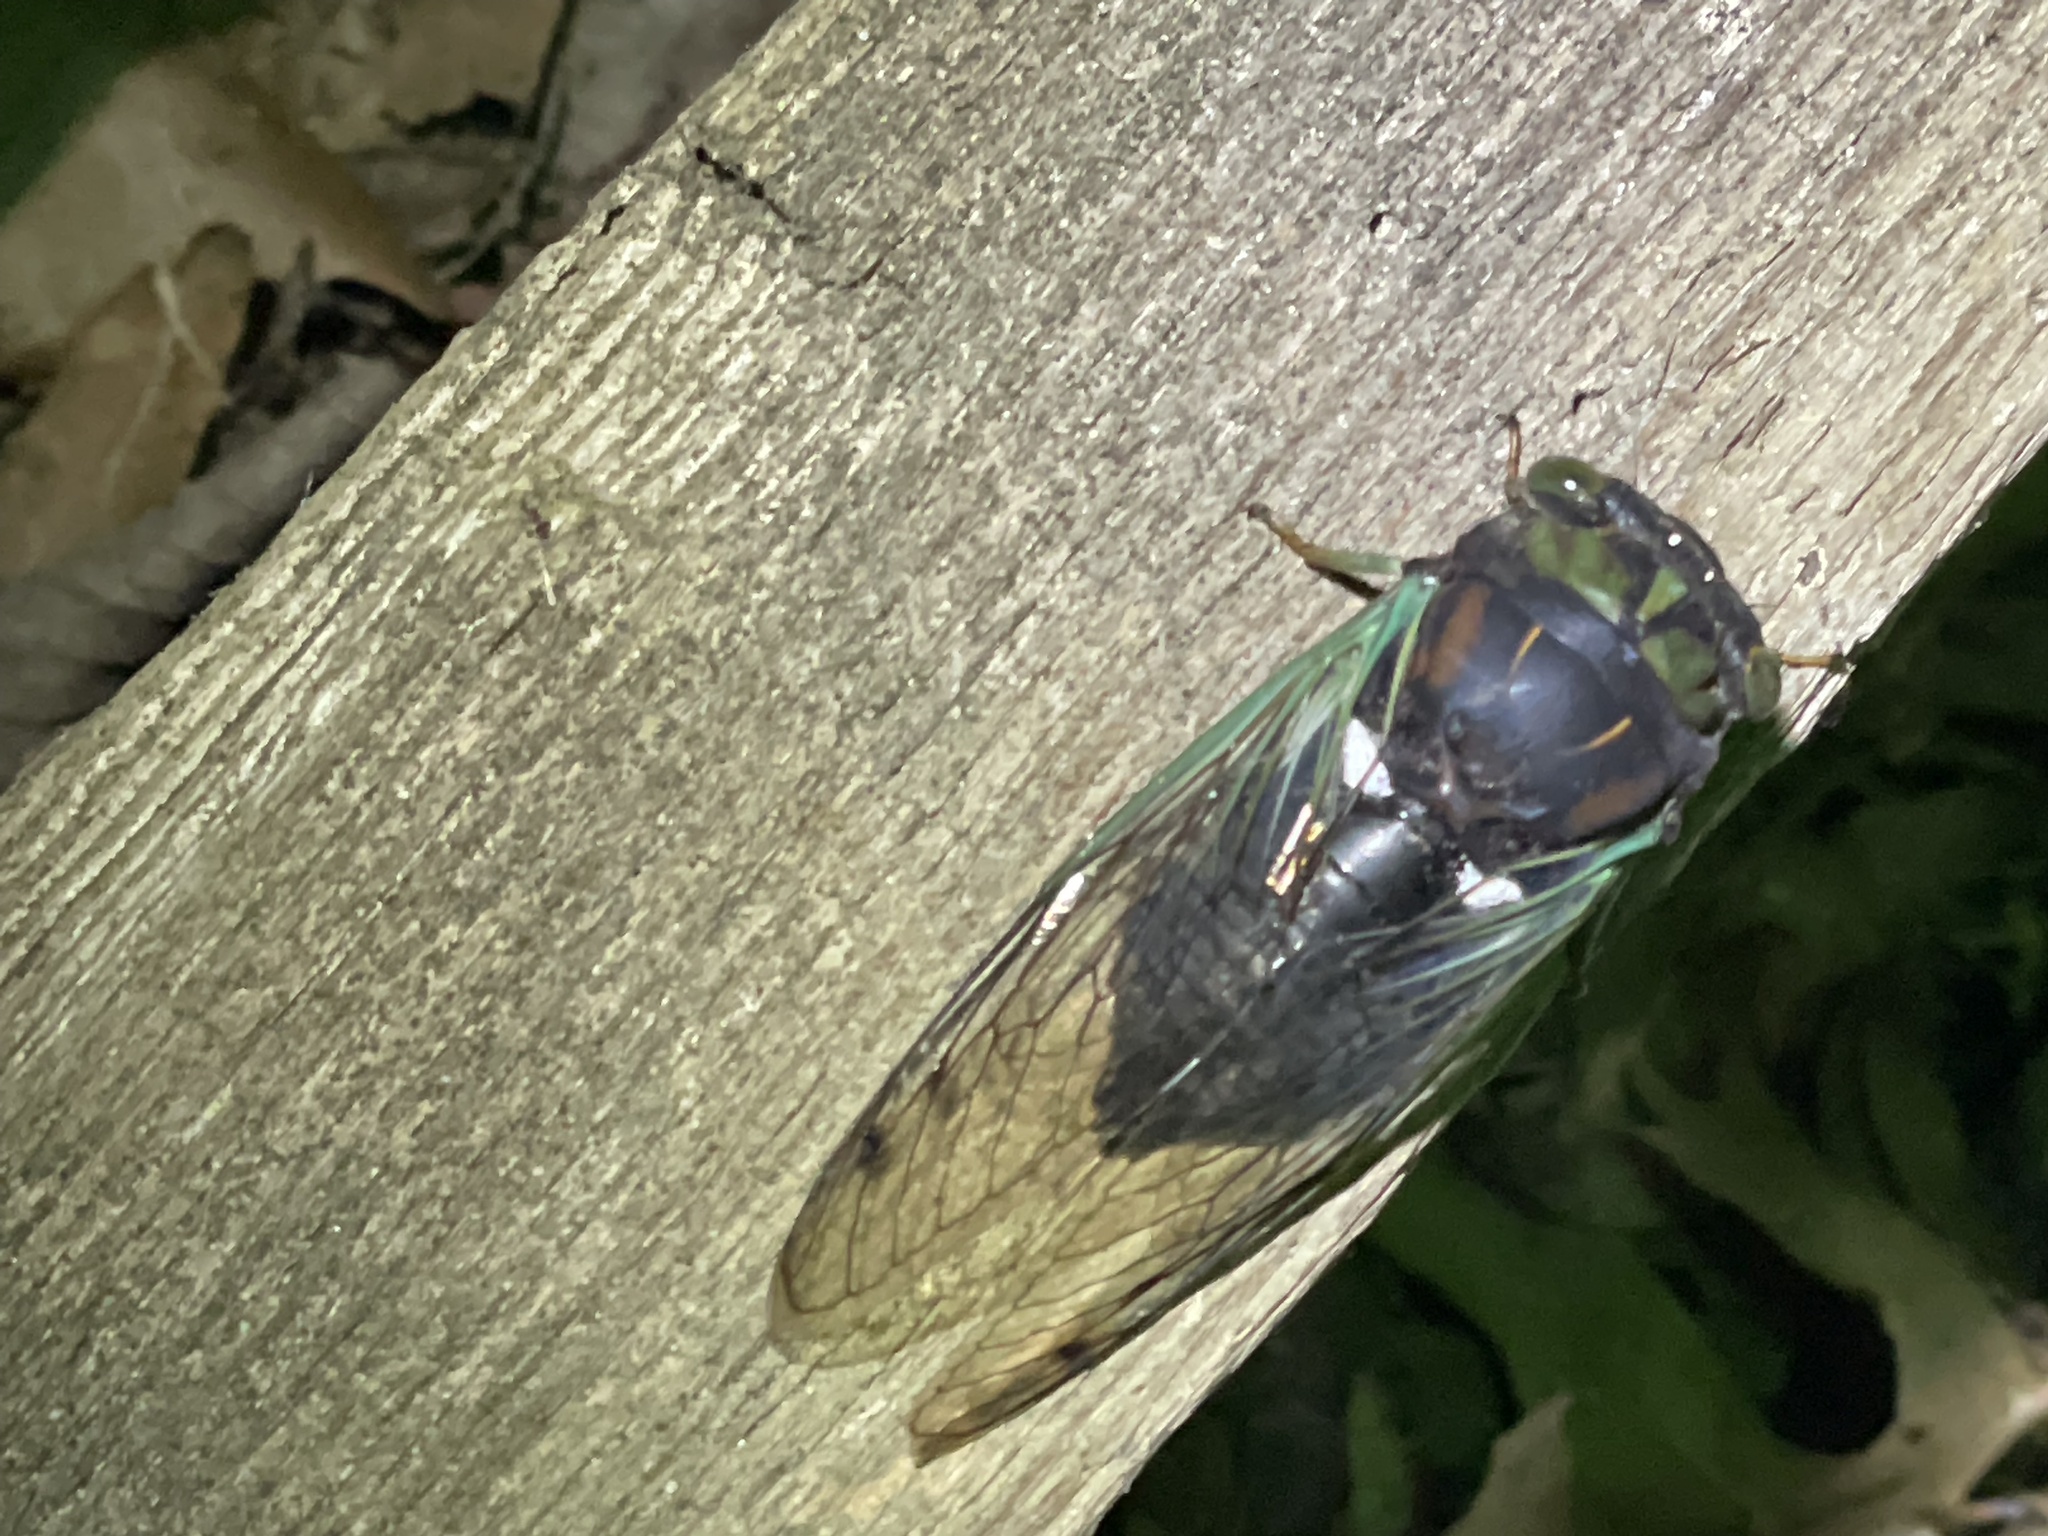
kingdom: Animalia
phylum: Arthropoda
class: Insecta
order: Hemiptera
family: Cicadidae
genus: Neotibicen
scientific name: Neotibicen tibicen
